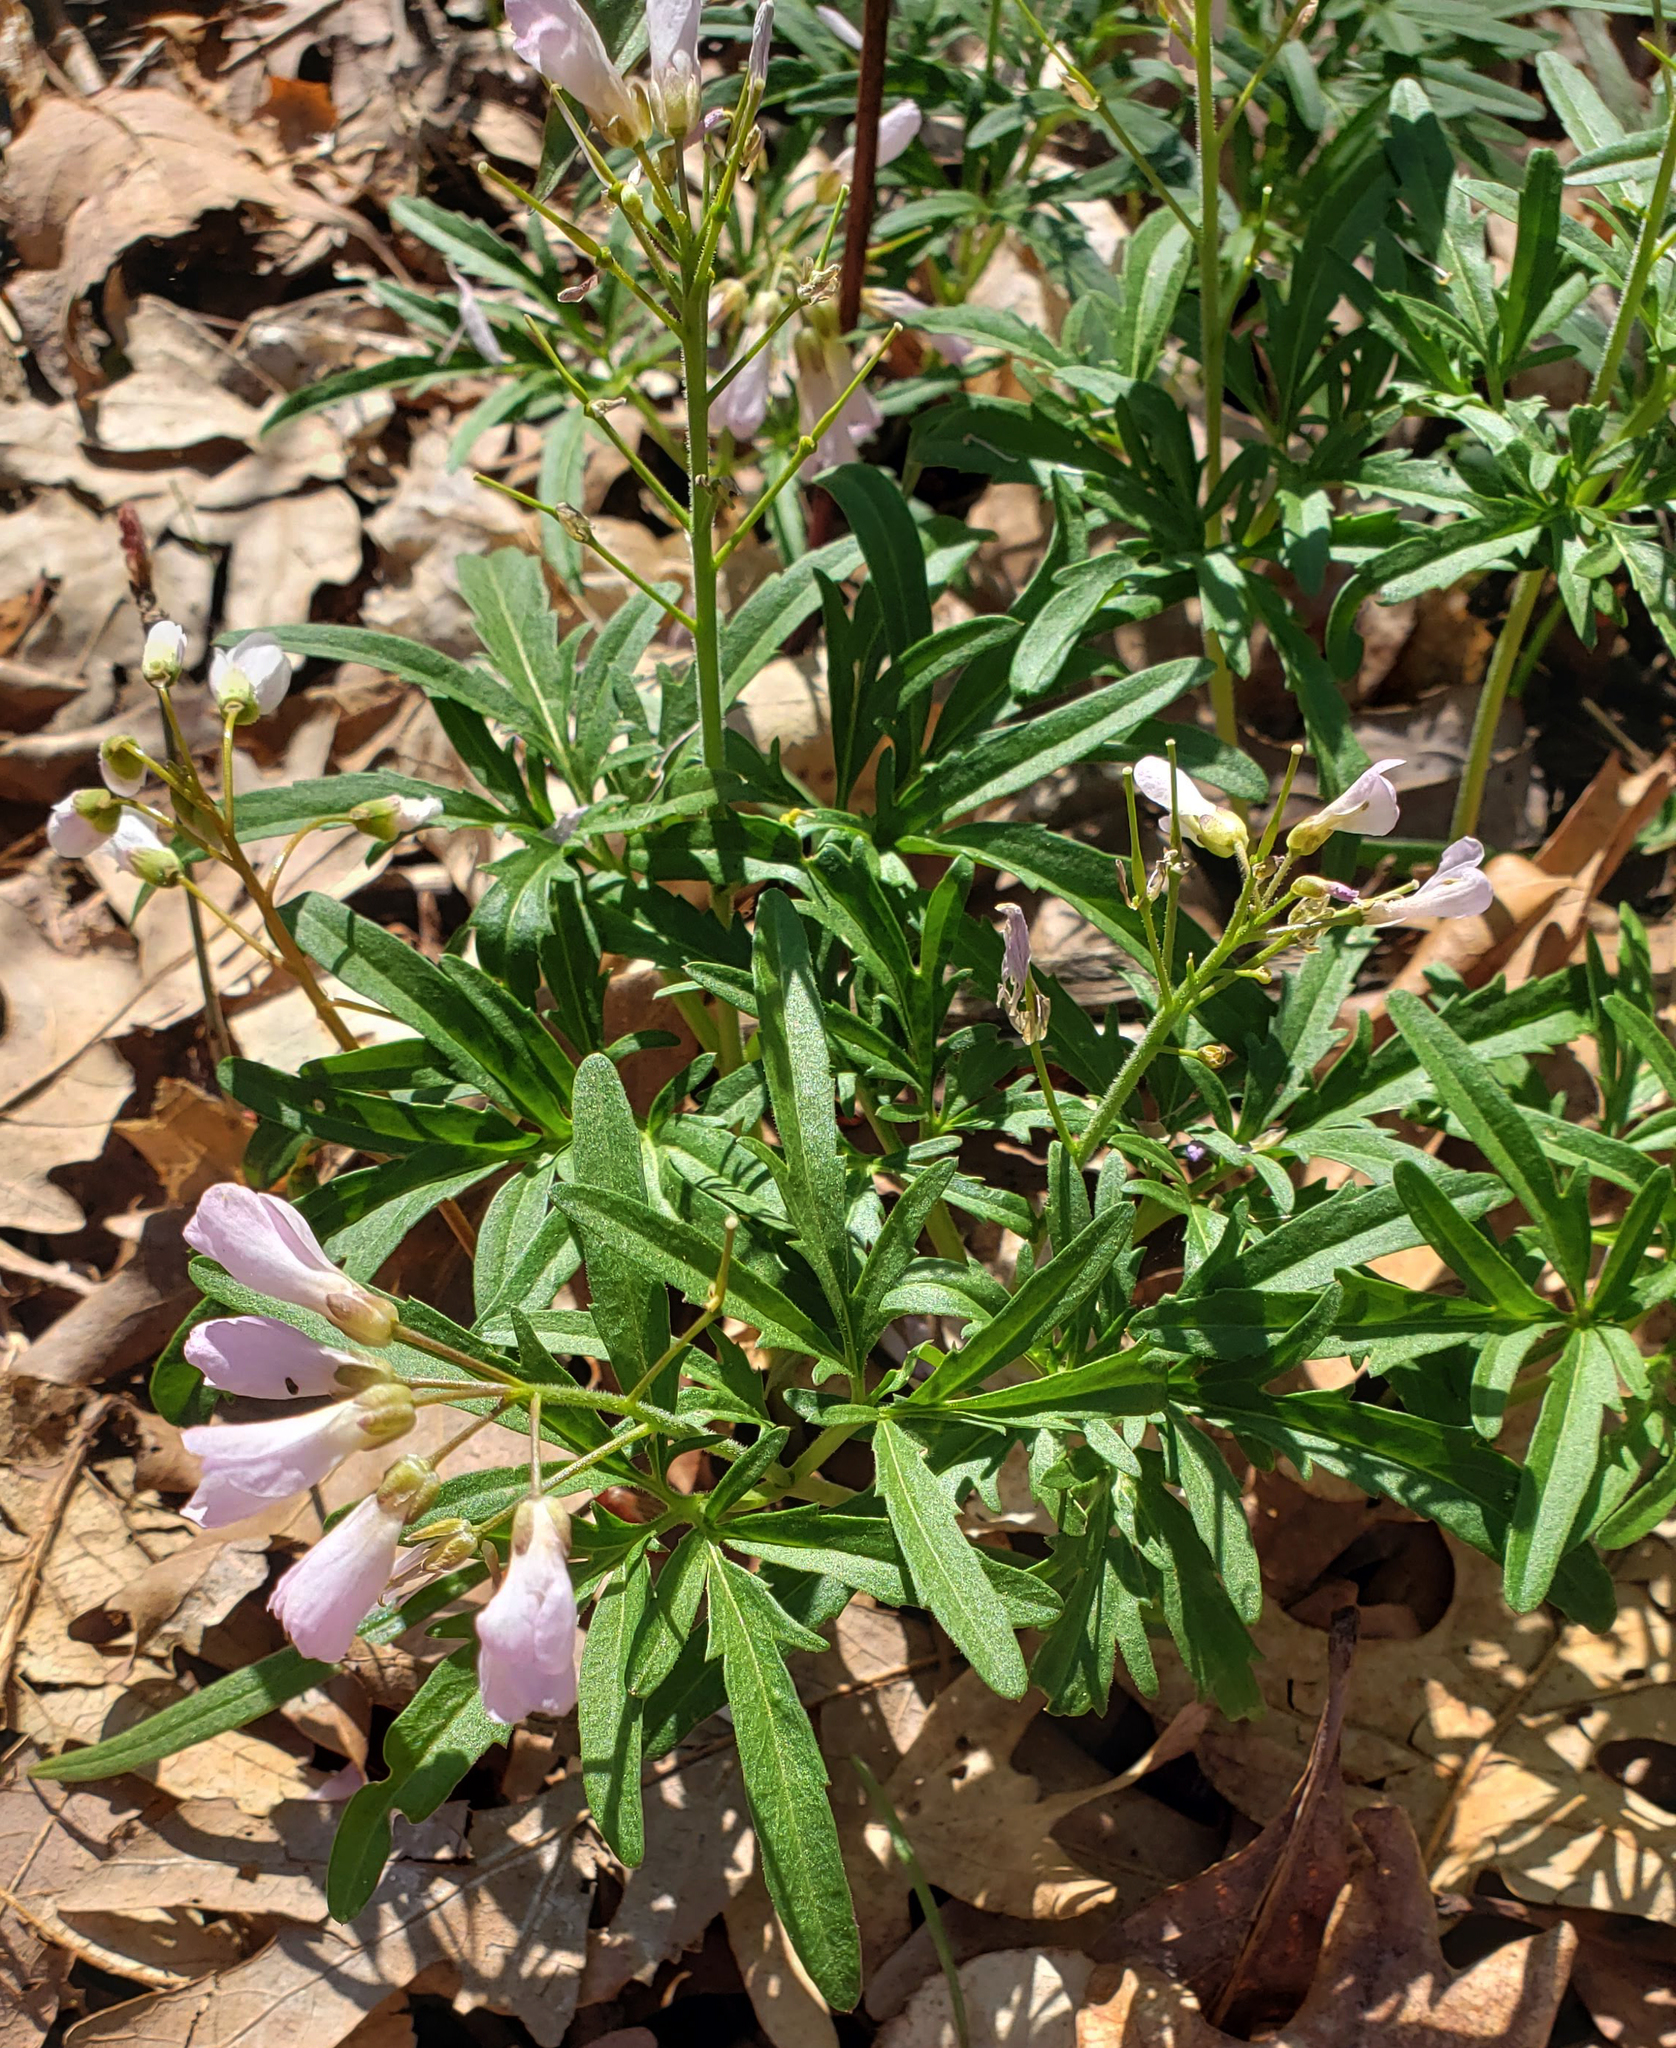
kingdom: Plantae
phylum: Tracheophyta
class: Magnoliopsida
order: Brassicales
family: Brassicaceae
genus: Cardamine
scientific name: Cardamine concatenata
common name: Cut-leaf toothcup
